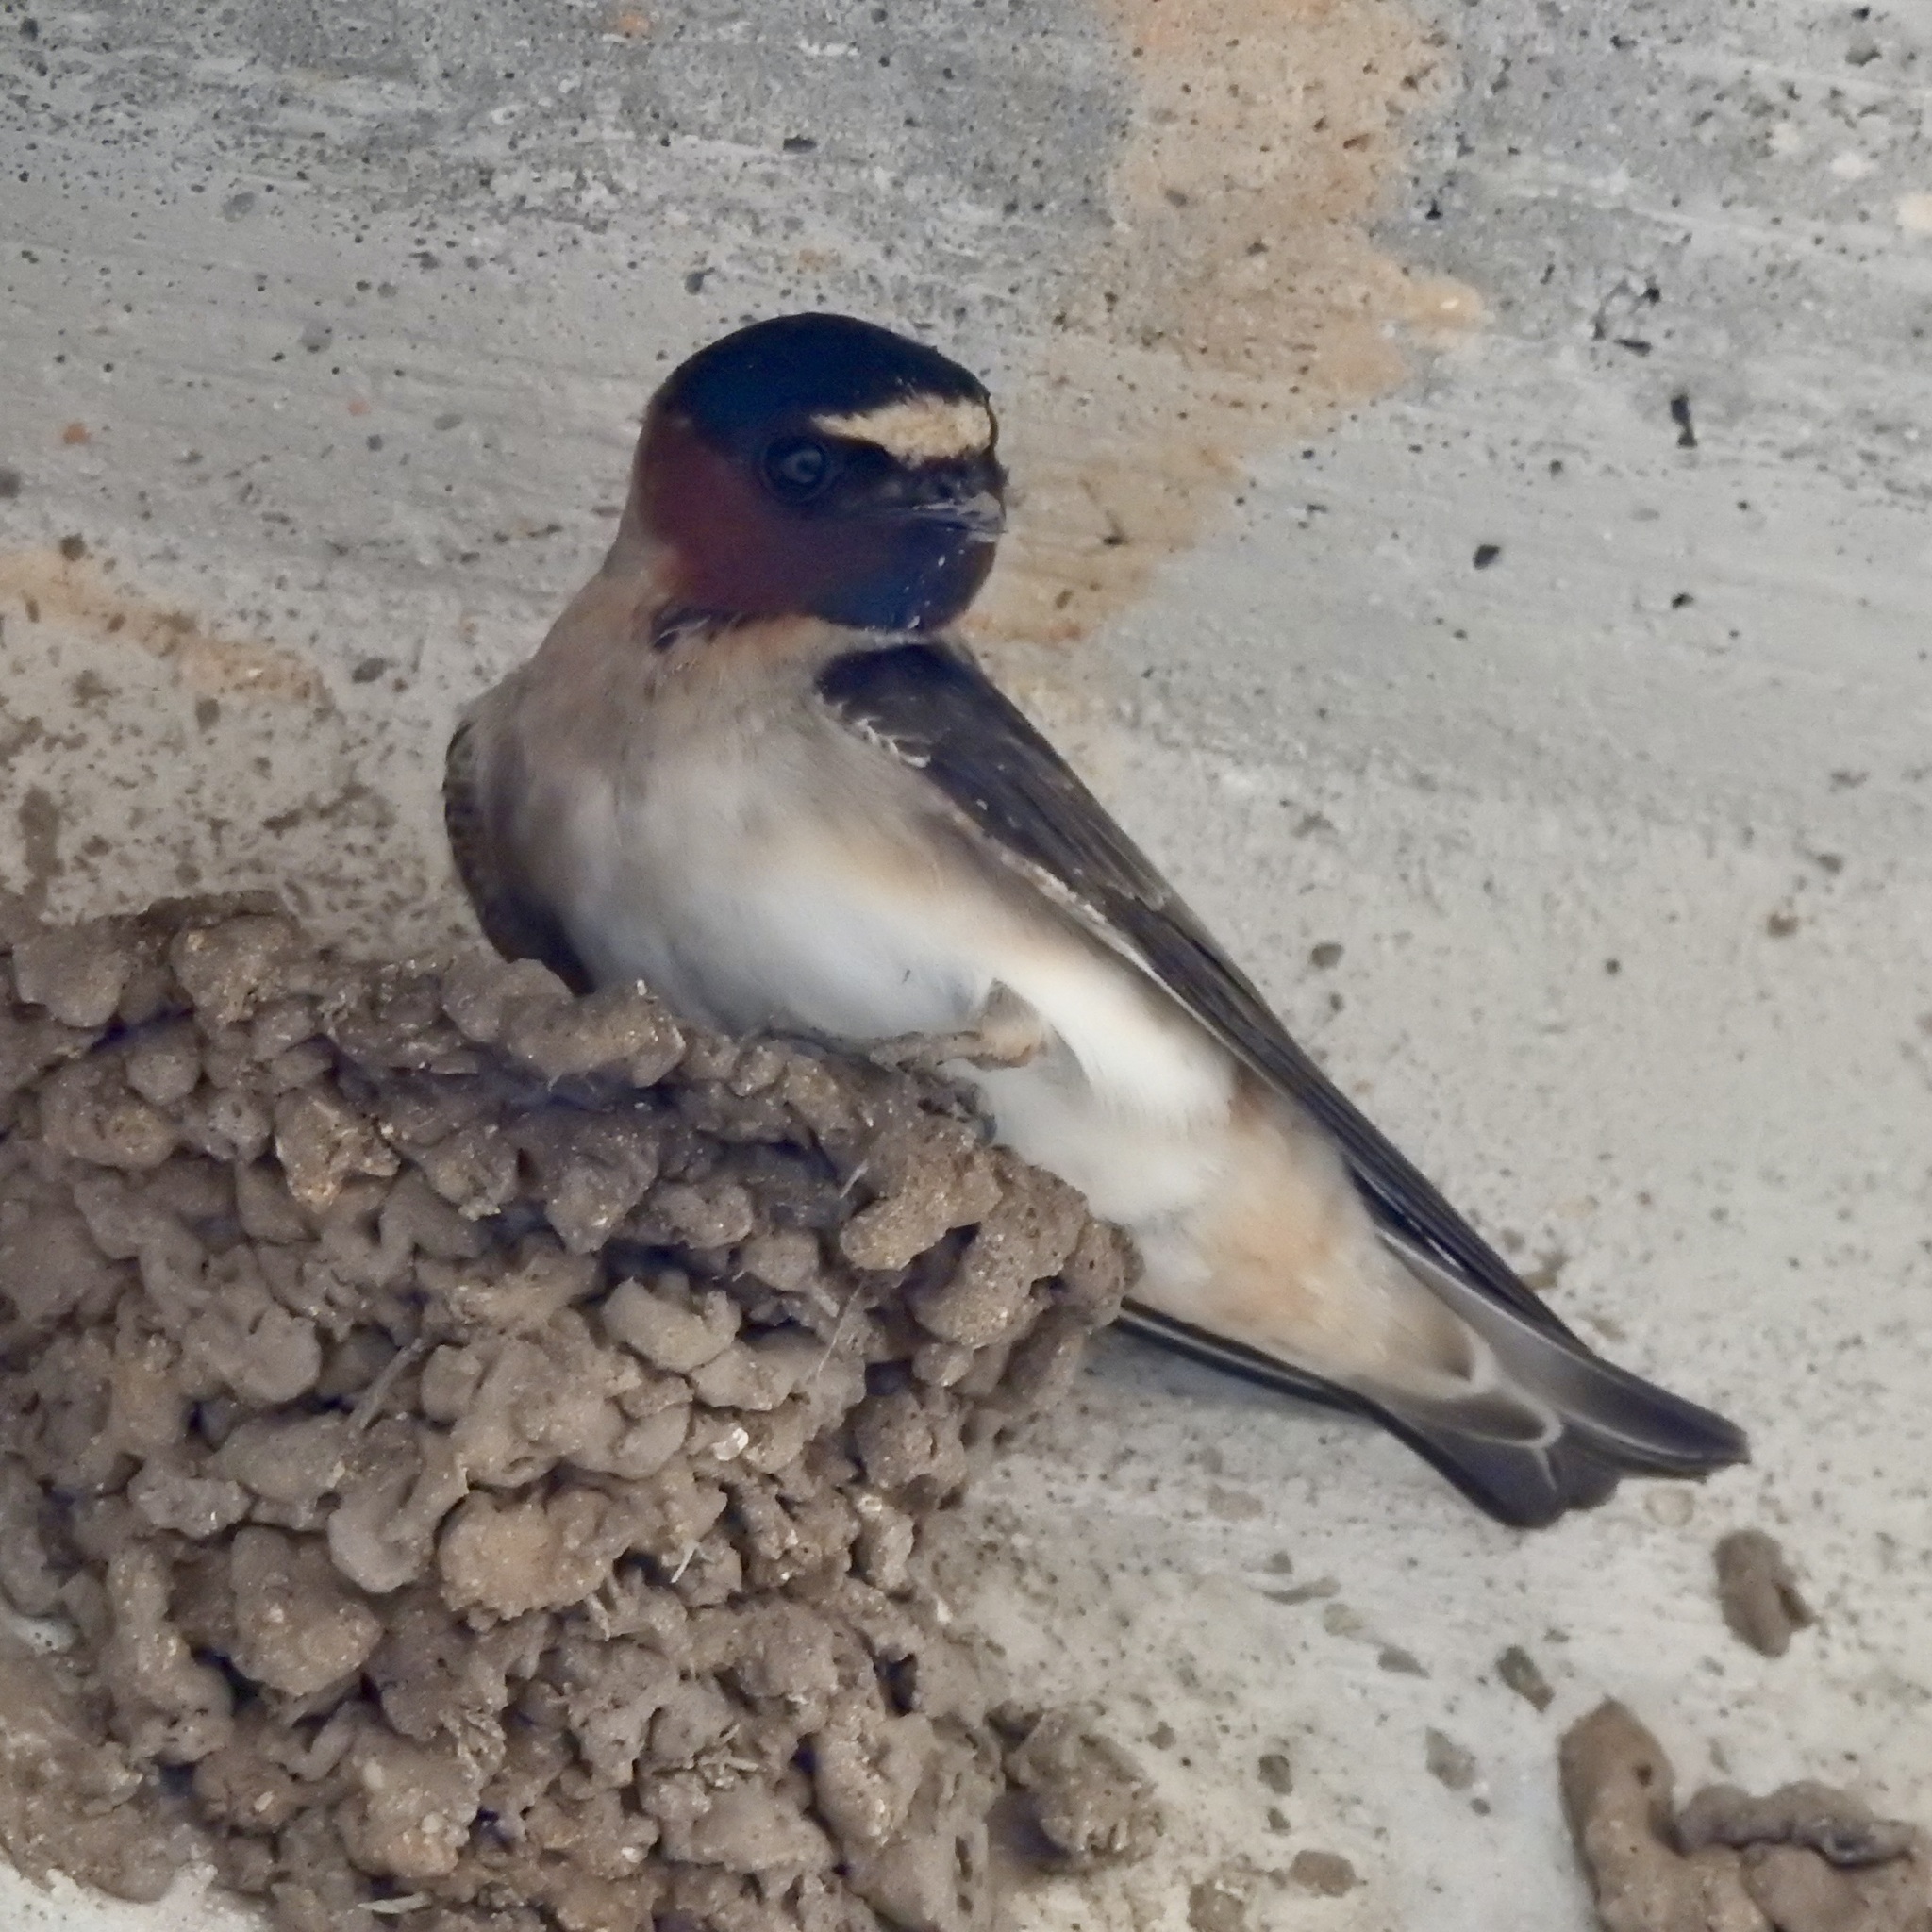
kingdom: Animalia
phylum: Chordata
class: Aves
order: Passeriformes
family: Hirundinidae
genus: Petrochelidon
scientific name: Petrochelidon pyrrhonota
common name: American cliff swallow
